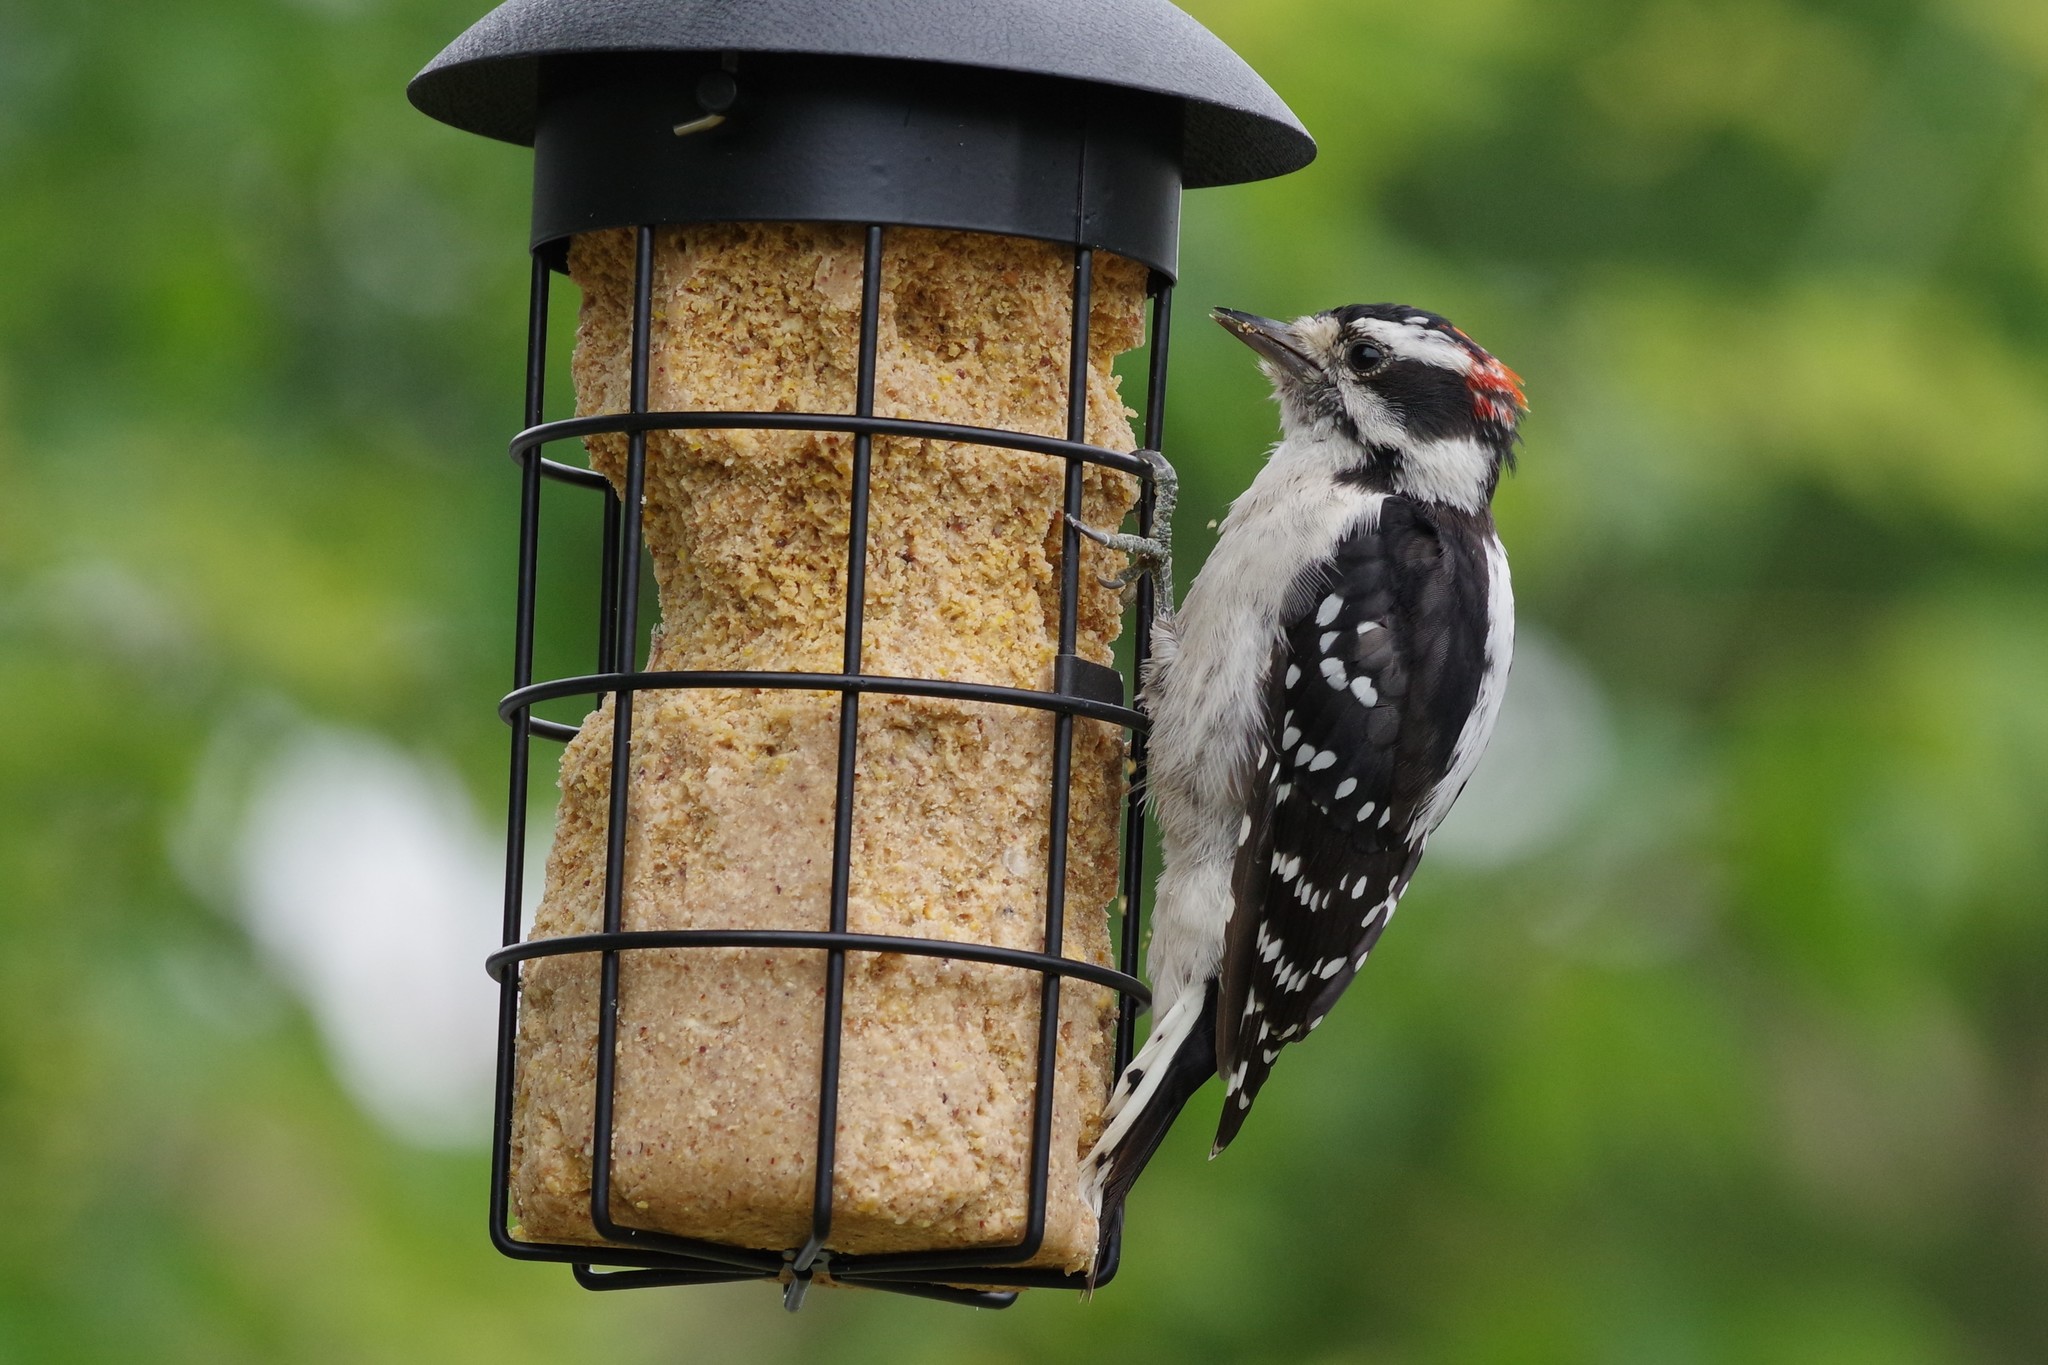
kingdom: Animalia
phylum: Chordata
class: Aves
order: Piciformes
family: Picidae
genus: Dryobates
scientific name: Dryobates pubescens
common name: Downy woodpecker
